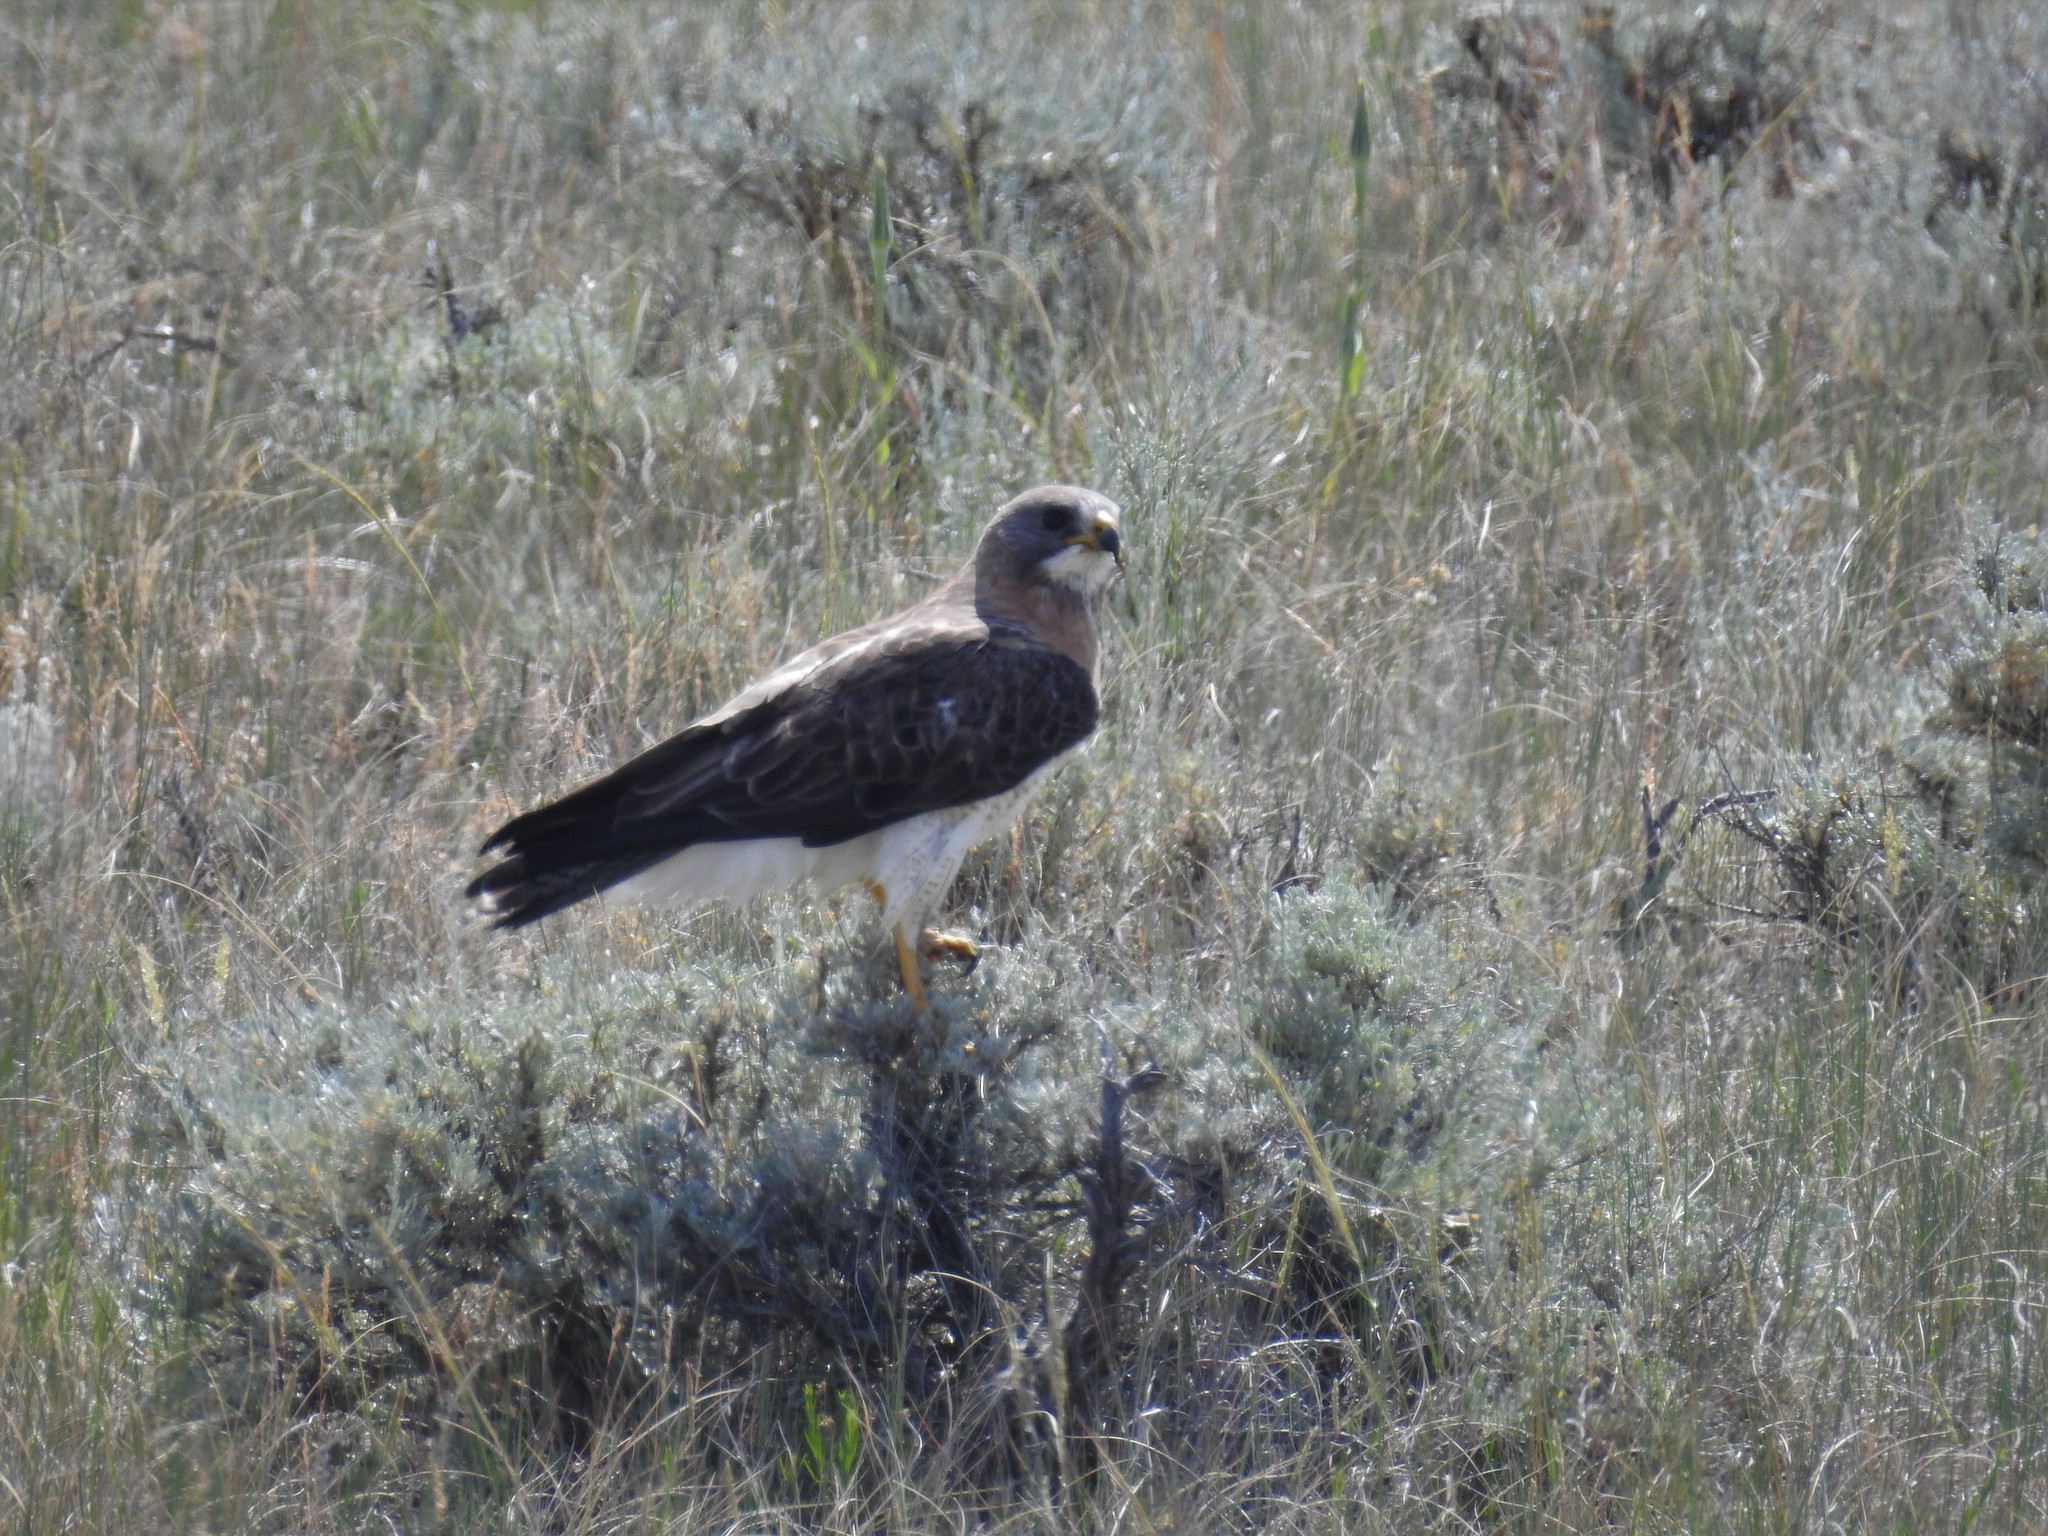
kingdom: Animalia
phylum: Chordata
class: Aves
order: Accipitriformes
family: Accipitridae
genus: Buteo
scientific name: Buteo swainsoni
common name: Swainson's hawk
